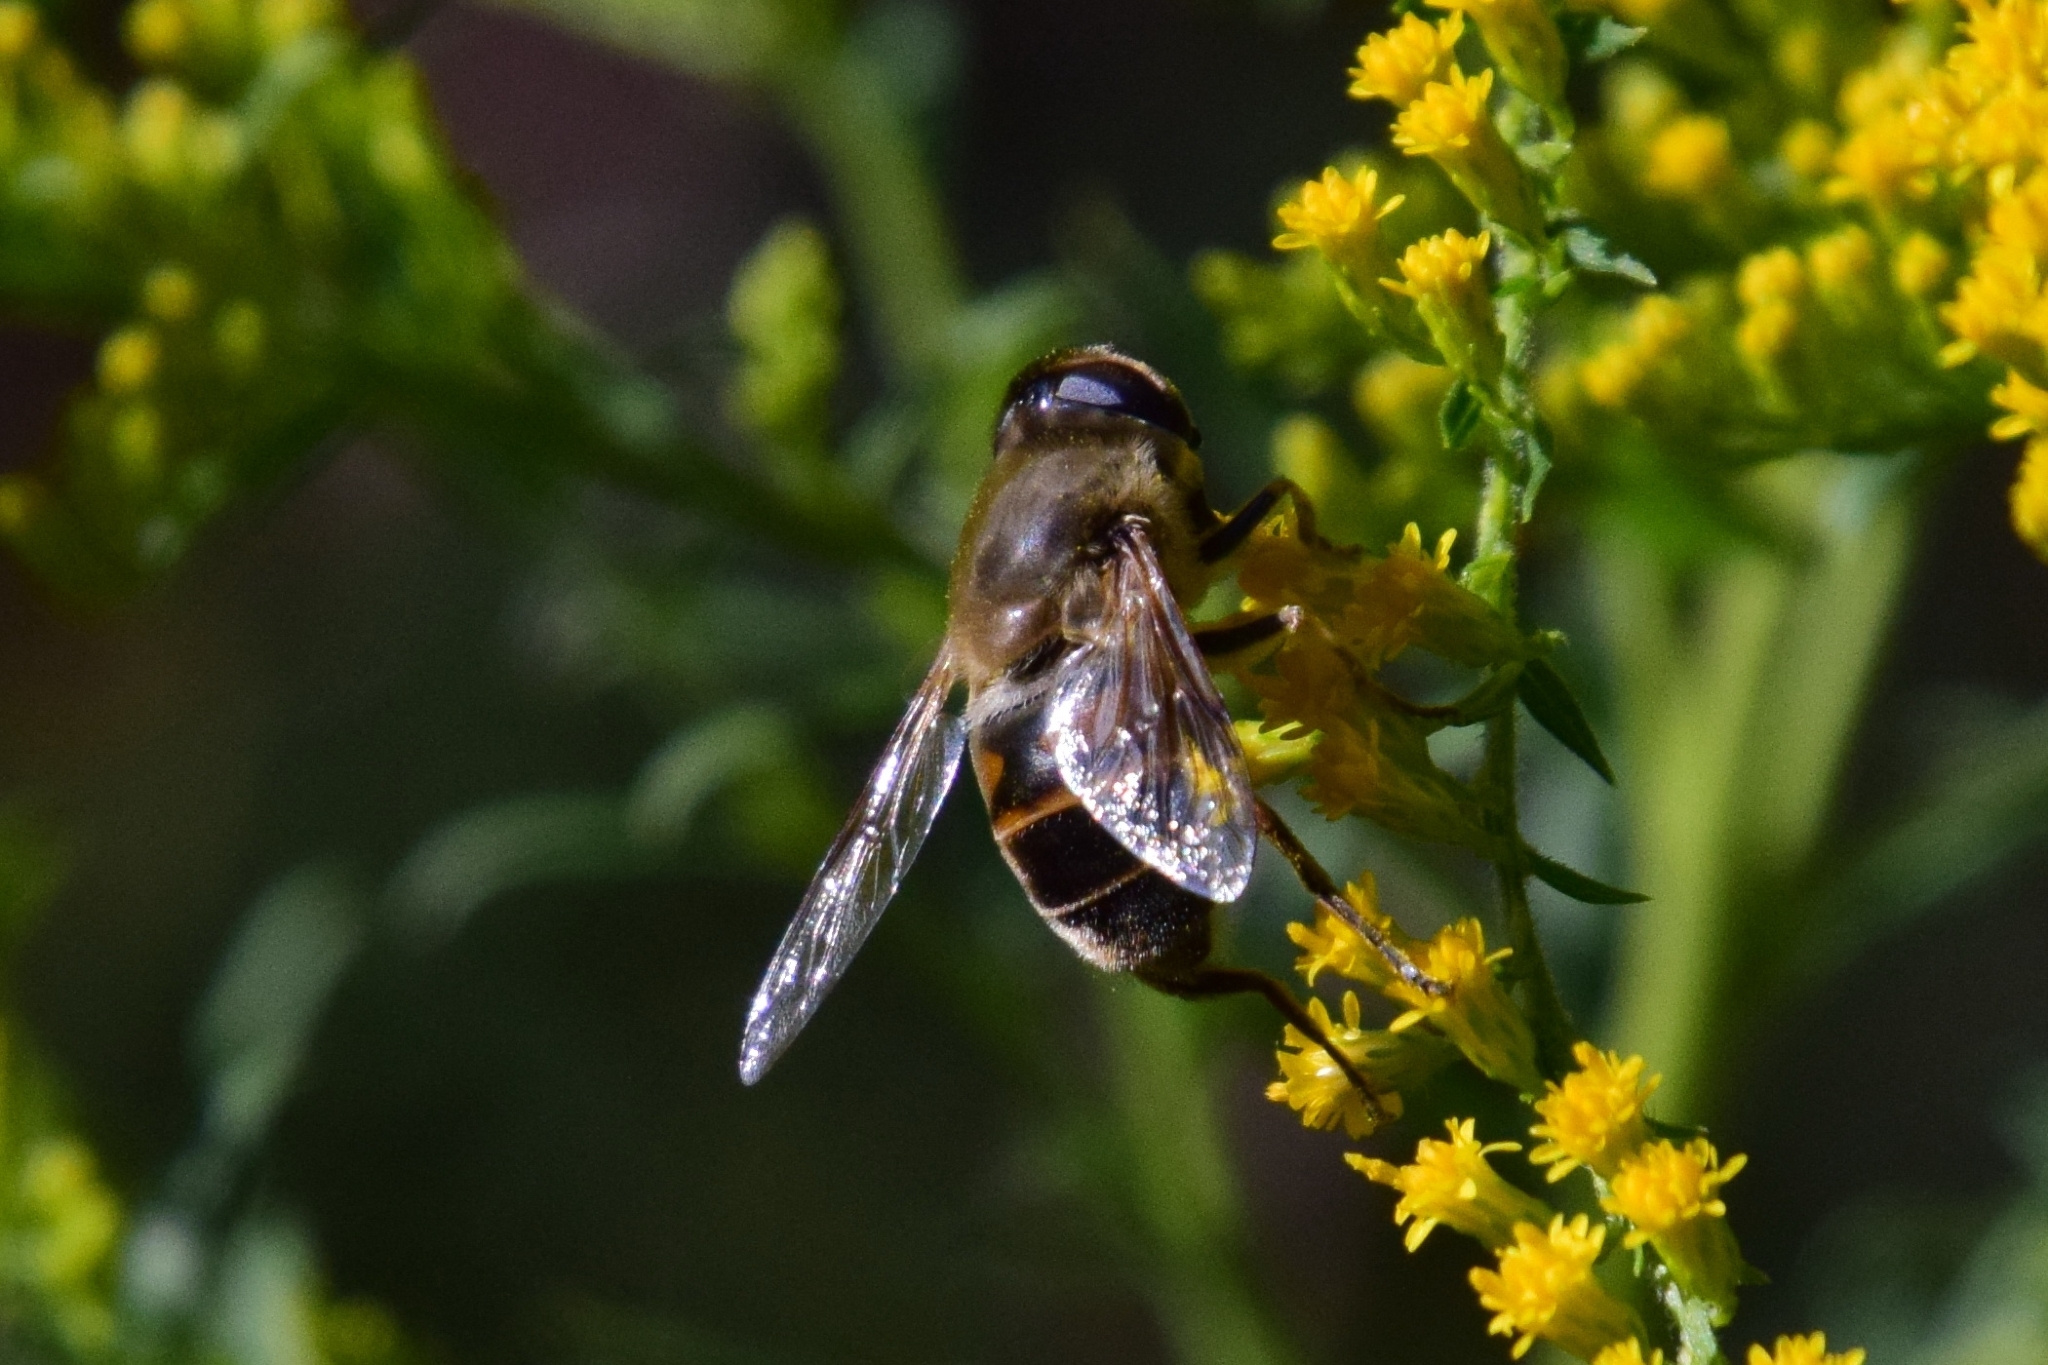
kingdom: Animalia
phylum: Arthropoda
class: Insecta
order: Diptera
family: Syrphidae
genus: Eristalis
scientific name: Eristalis tenax
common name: Drone fly
